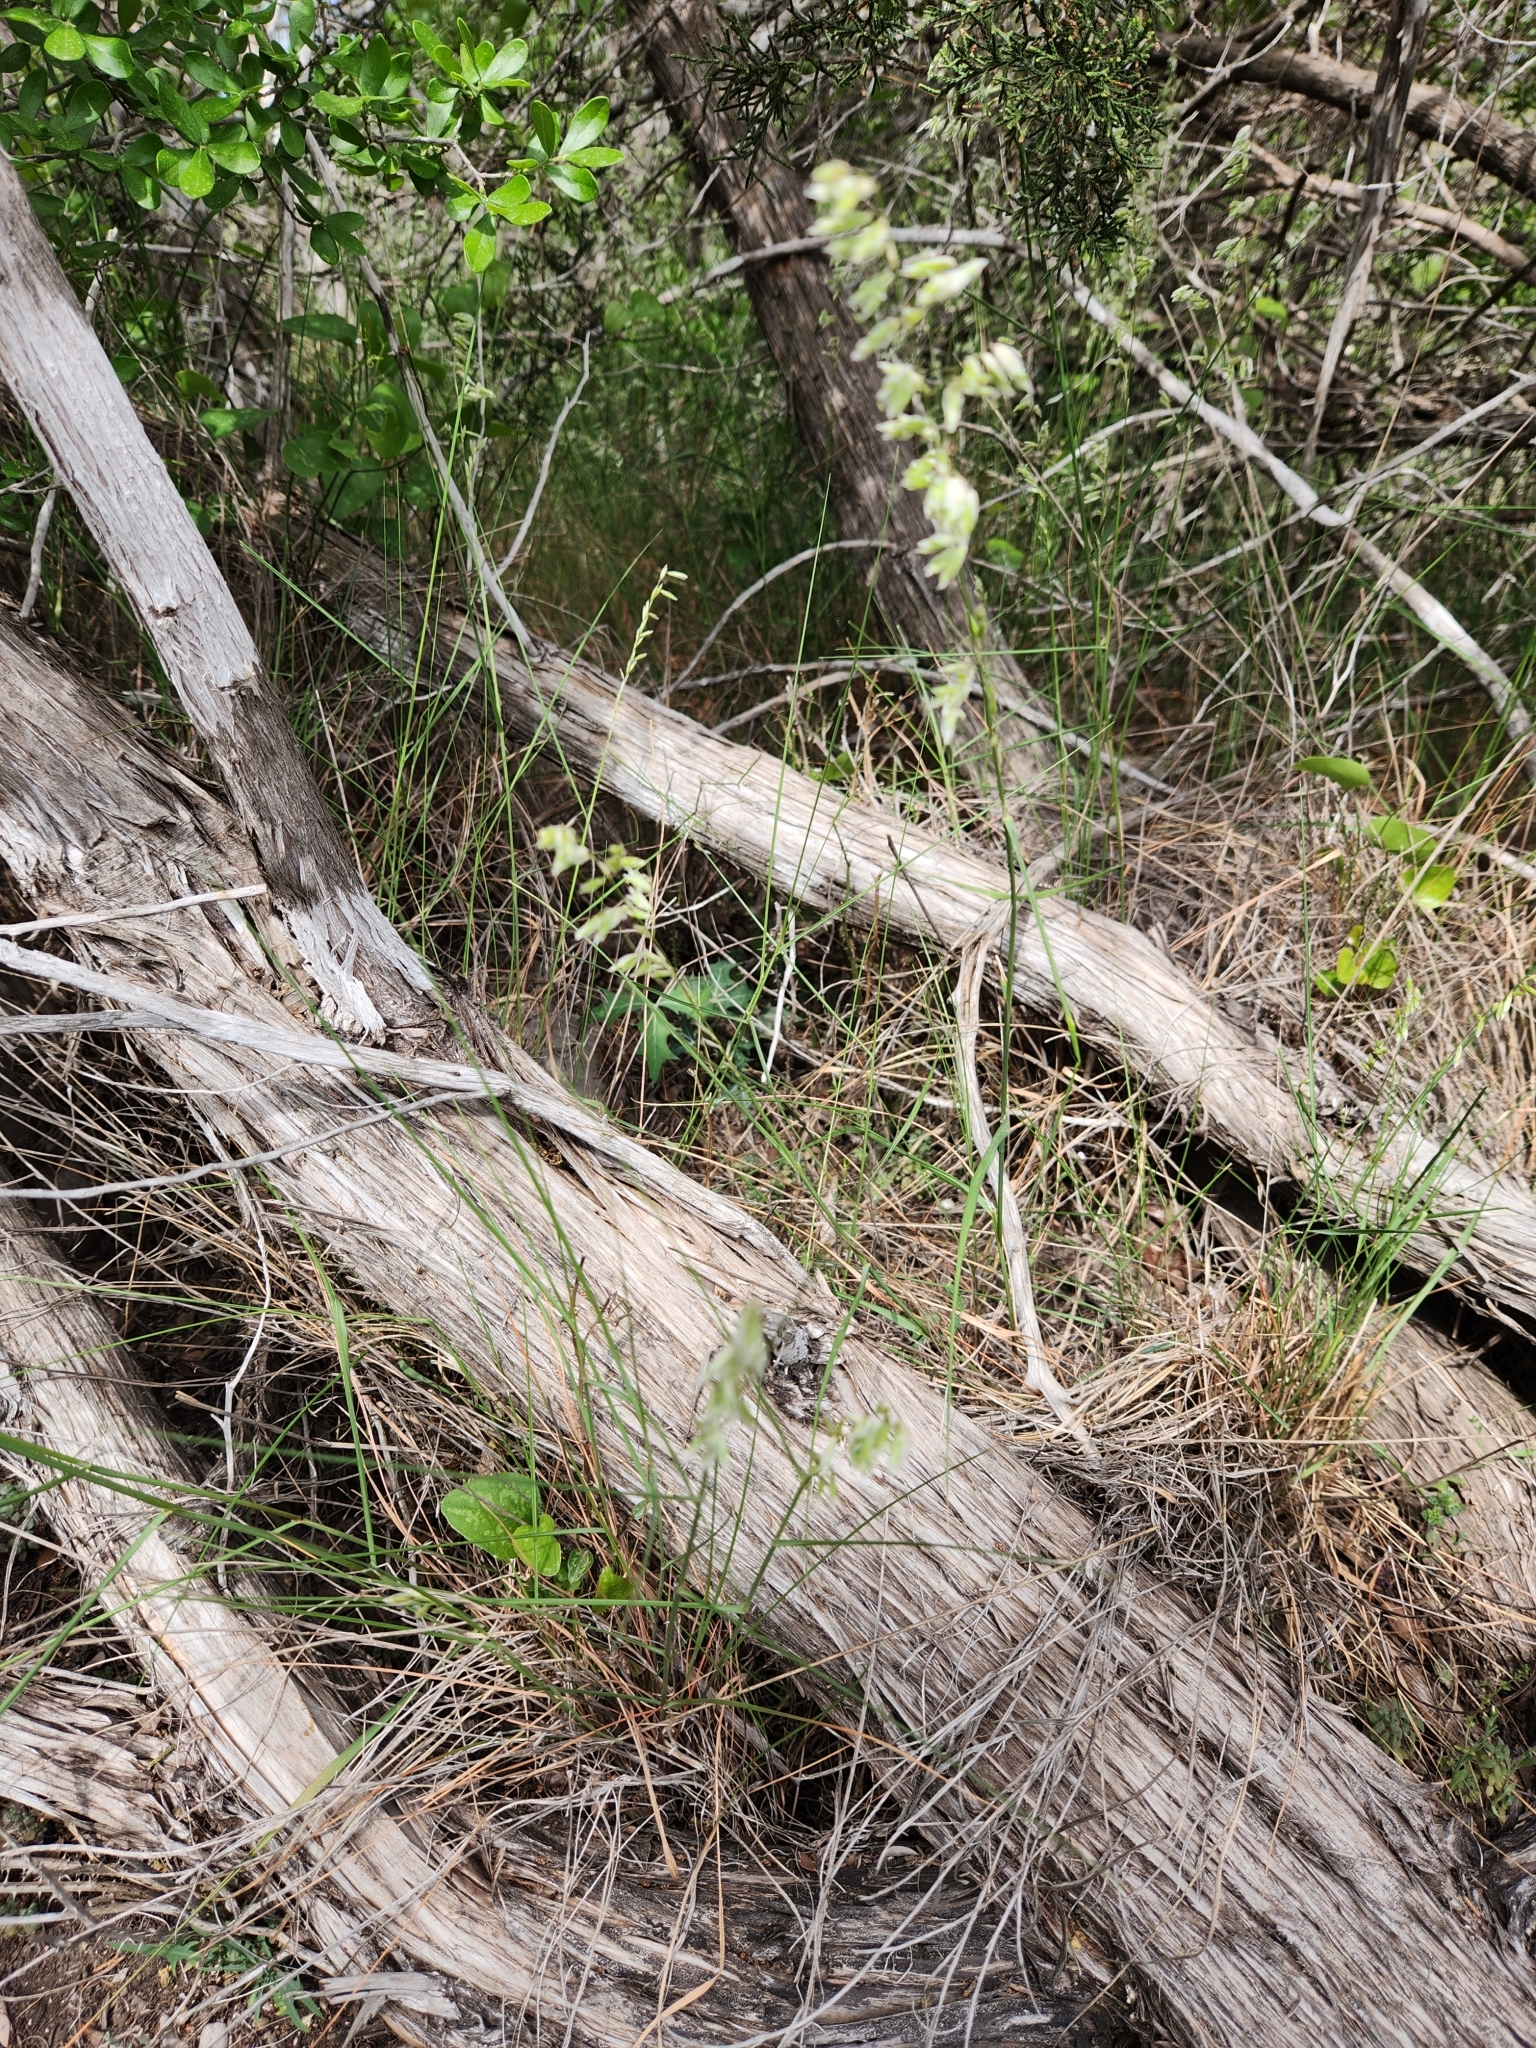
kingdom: Plantae
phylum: Tracheophyta
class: Liliopsida
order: Poales
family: Poaceae
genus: Melica
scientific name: Melica nitens
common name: Three-flower melic
